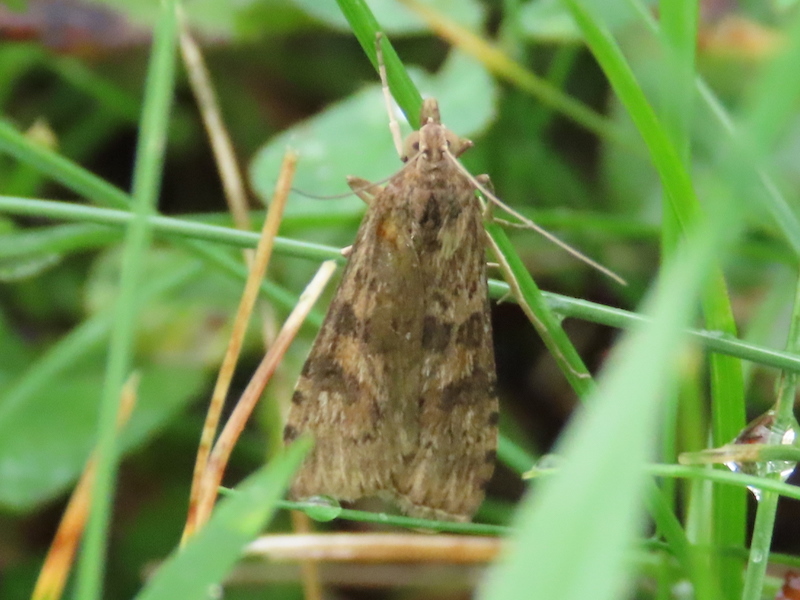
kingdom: Animalia
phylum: Arthropoda
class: Insecta
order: Lepidoptera
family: Crambidae
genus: Nomophila
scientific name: Nomophila nearctica
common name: American rush veneer
